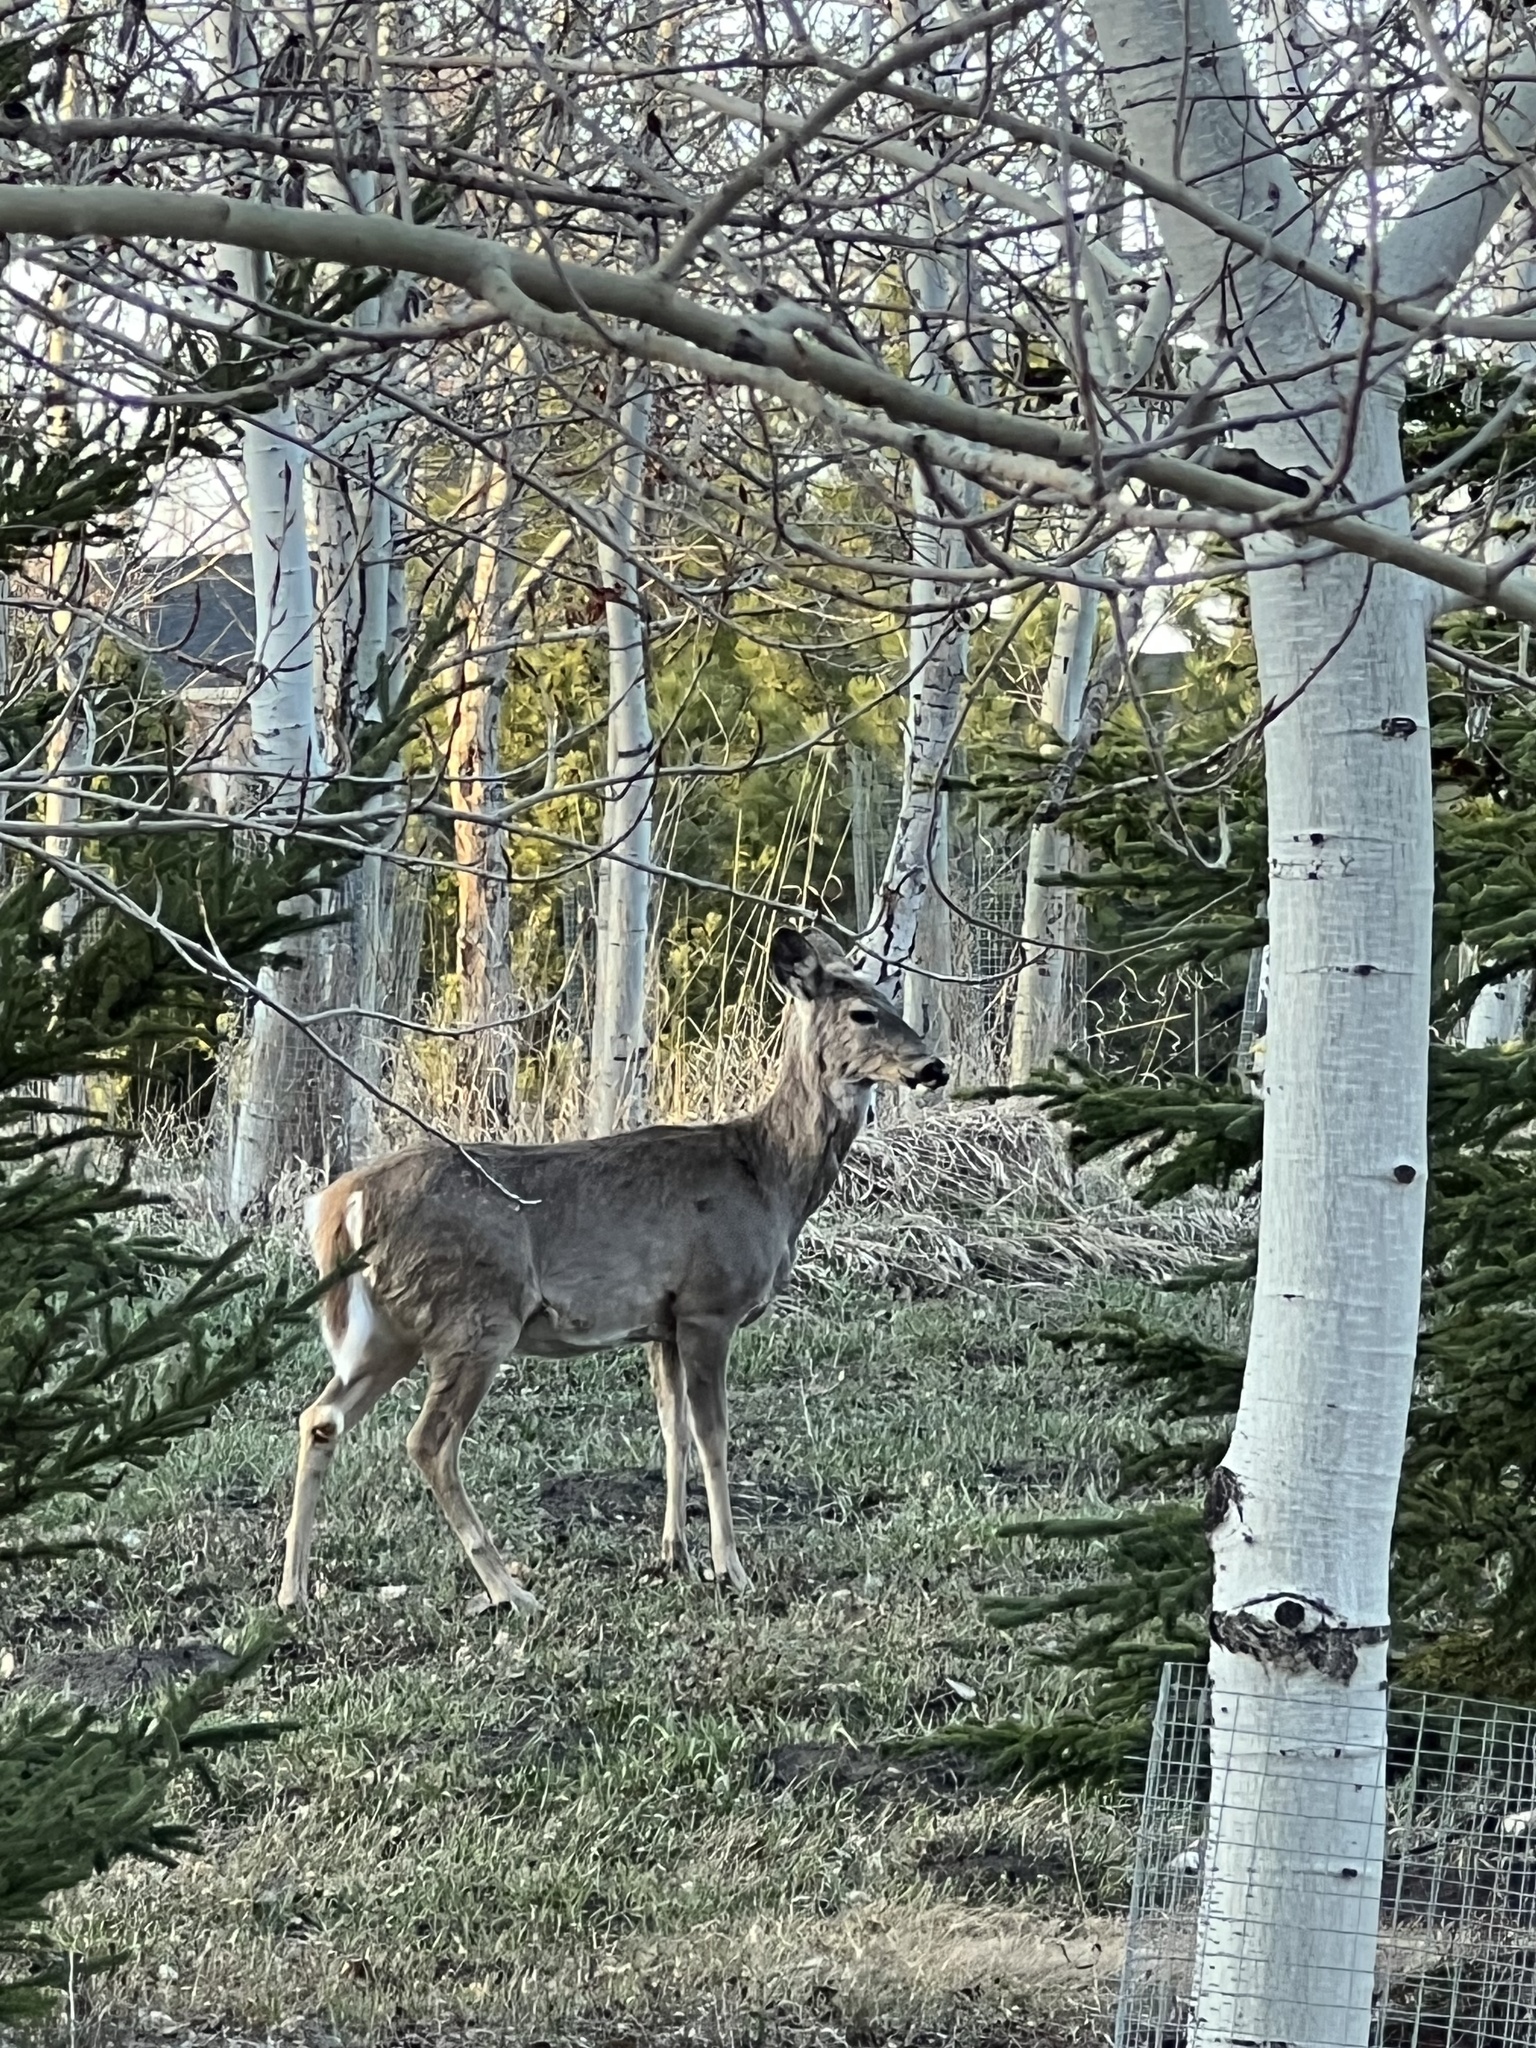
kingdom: Animalia
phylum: Chordata
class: Mammalia
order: Artiodactyla
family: Cervidae
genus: Odocoileus
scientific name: Odocoileus virginianus
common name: White-tailed deer
